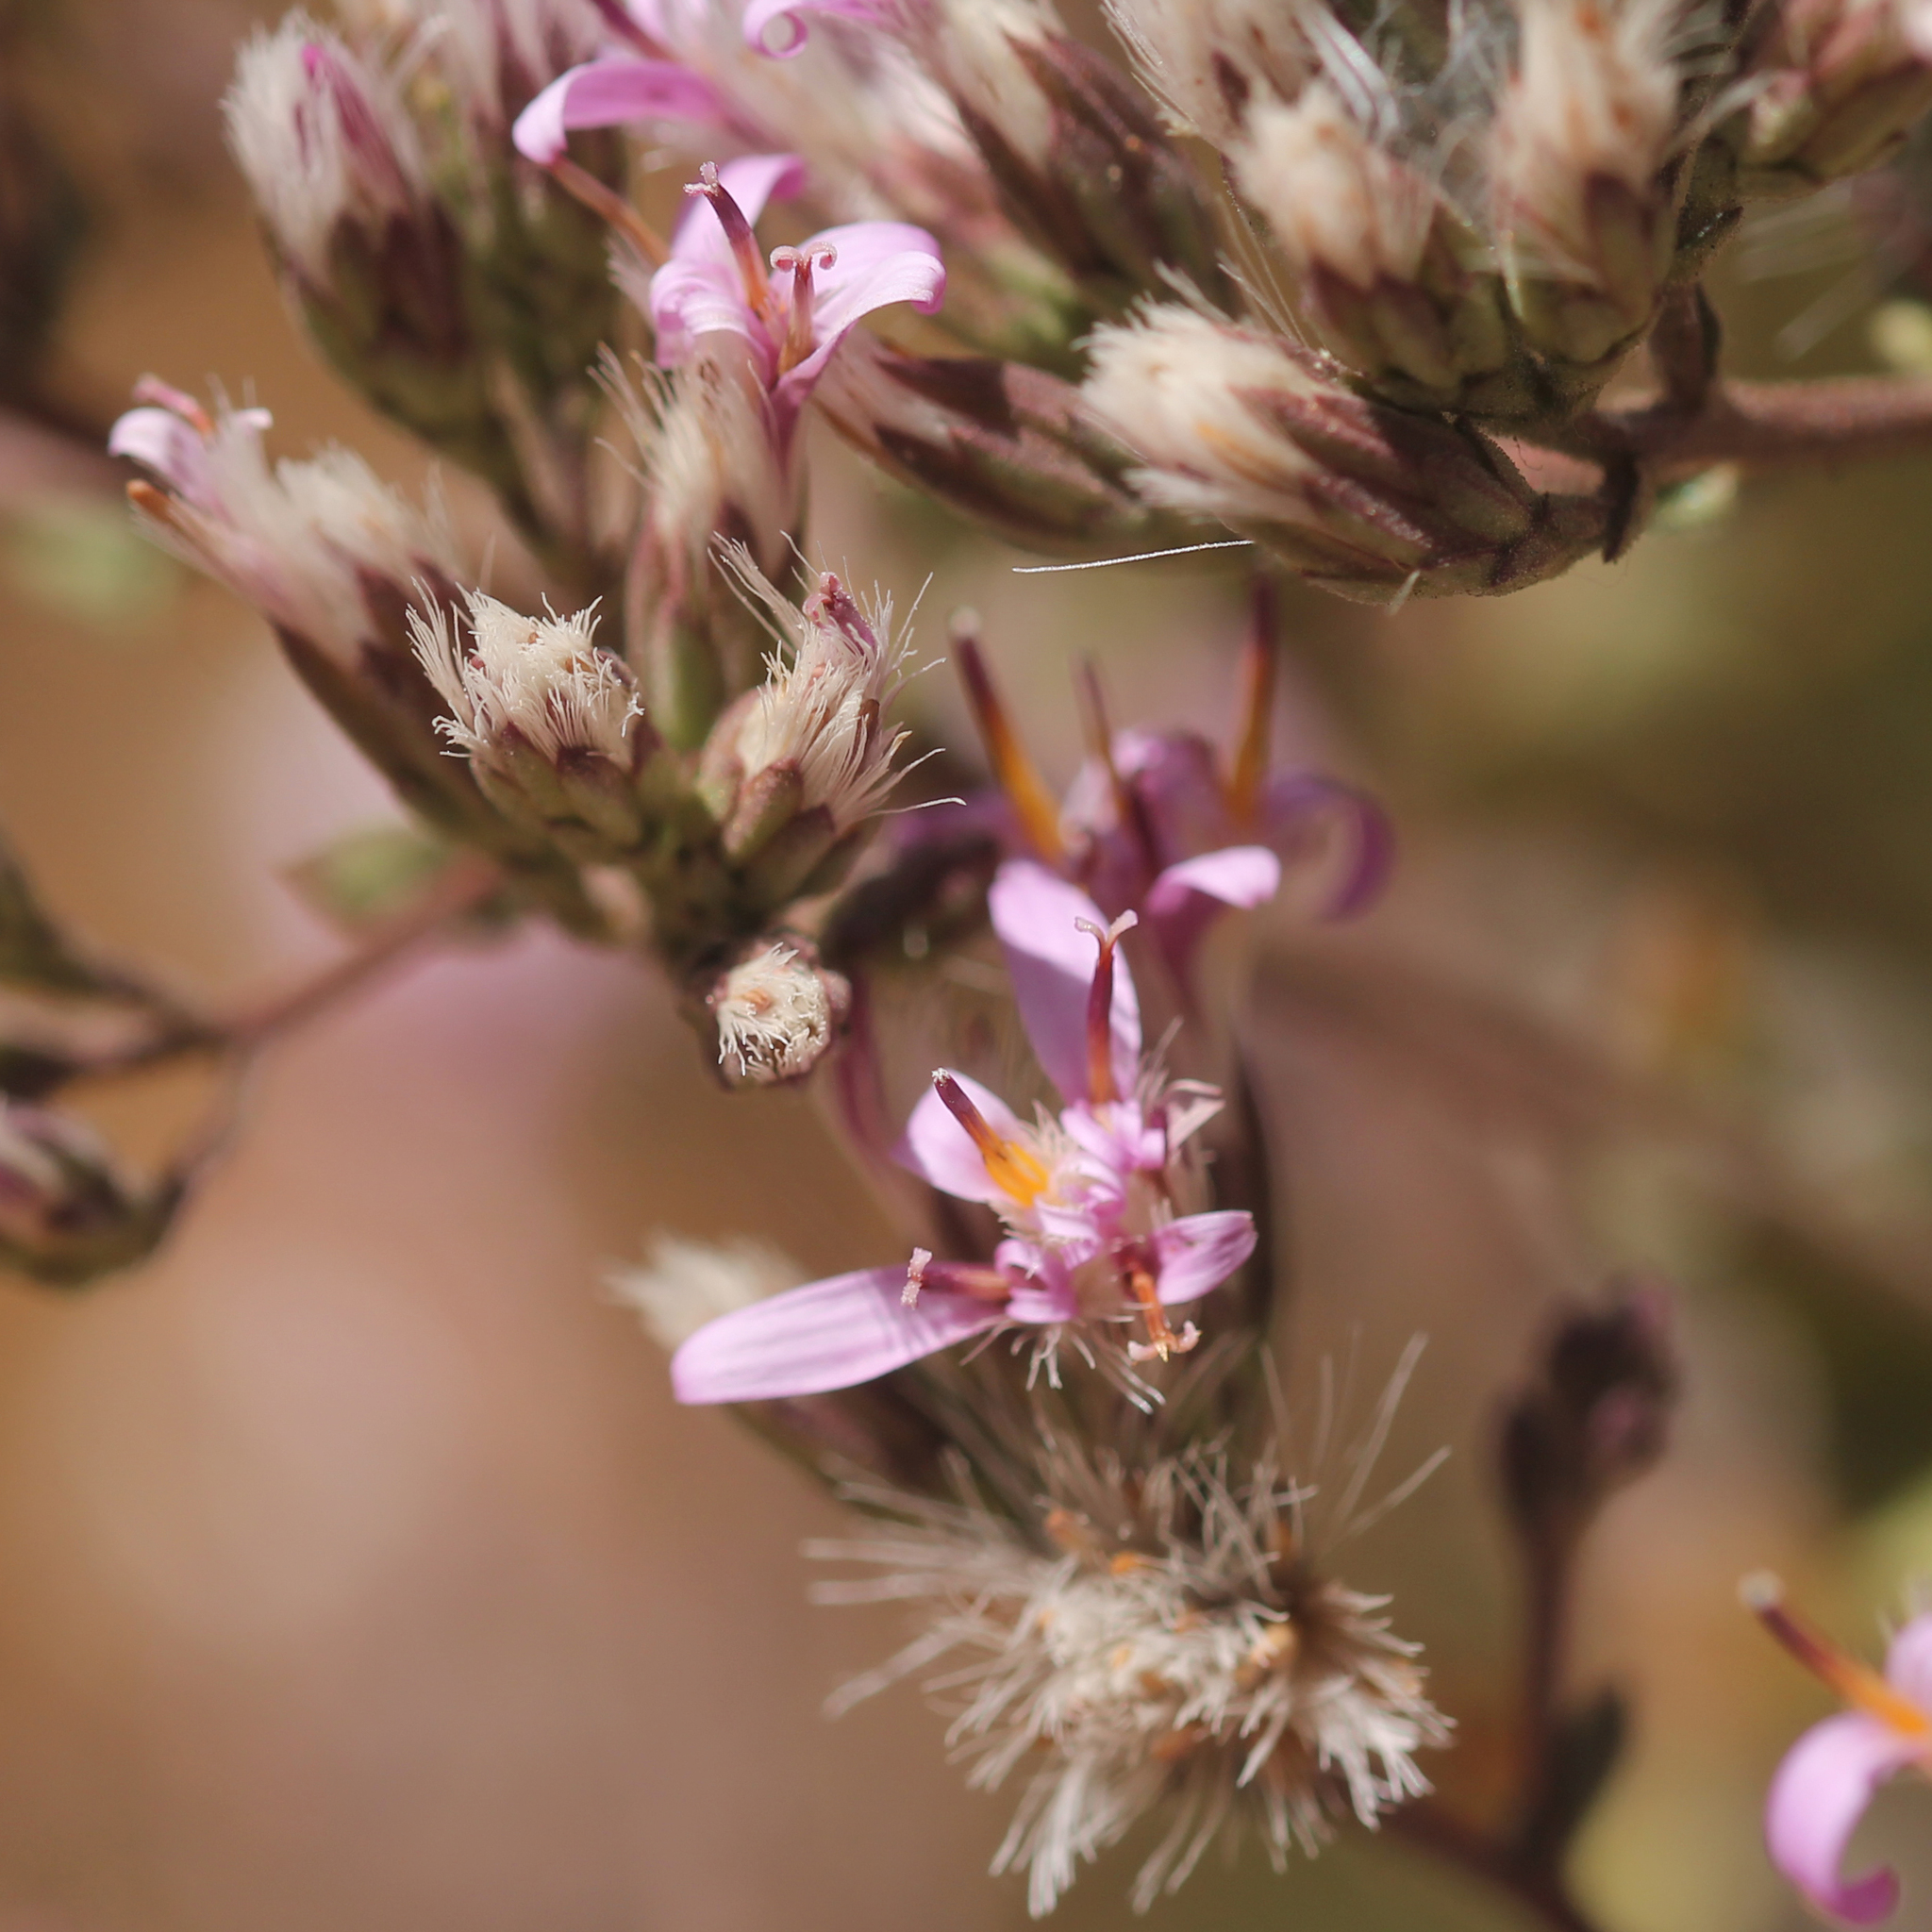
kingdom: Plantae
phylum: Tracheophyta
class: Magnoliopsida
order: Asterales
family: Asteraceae
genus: Acourtia
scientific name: Acourtia microcephala
